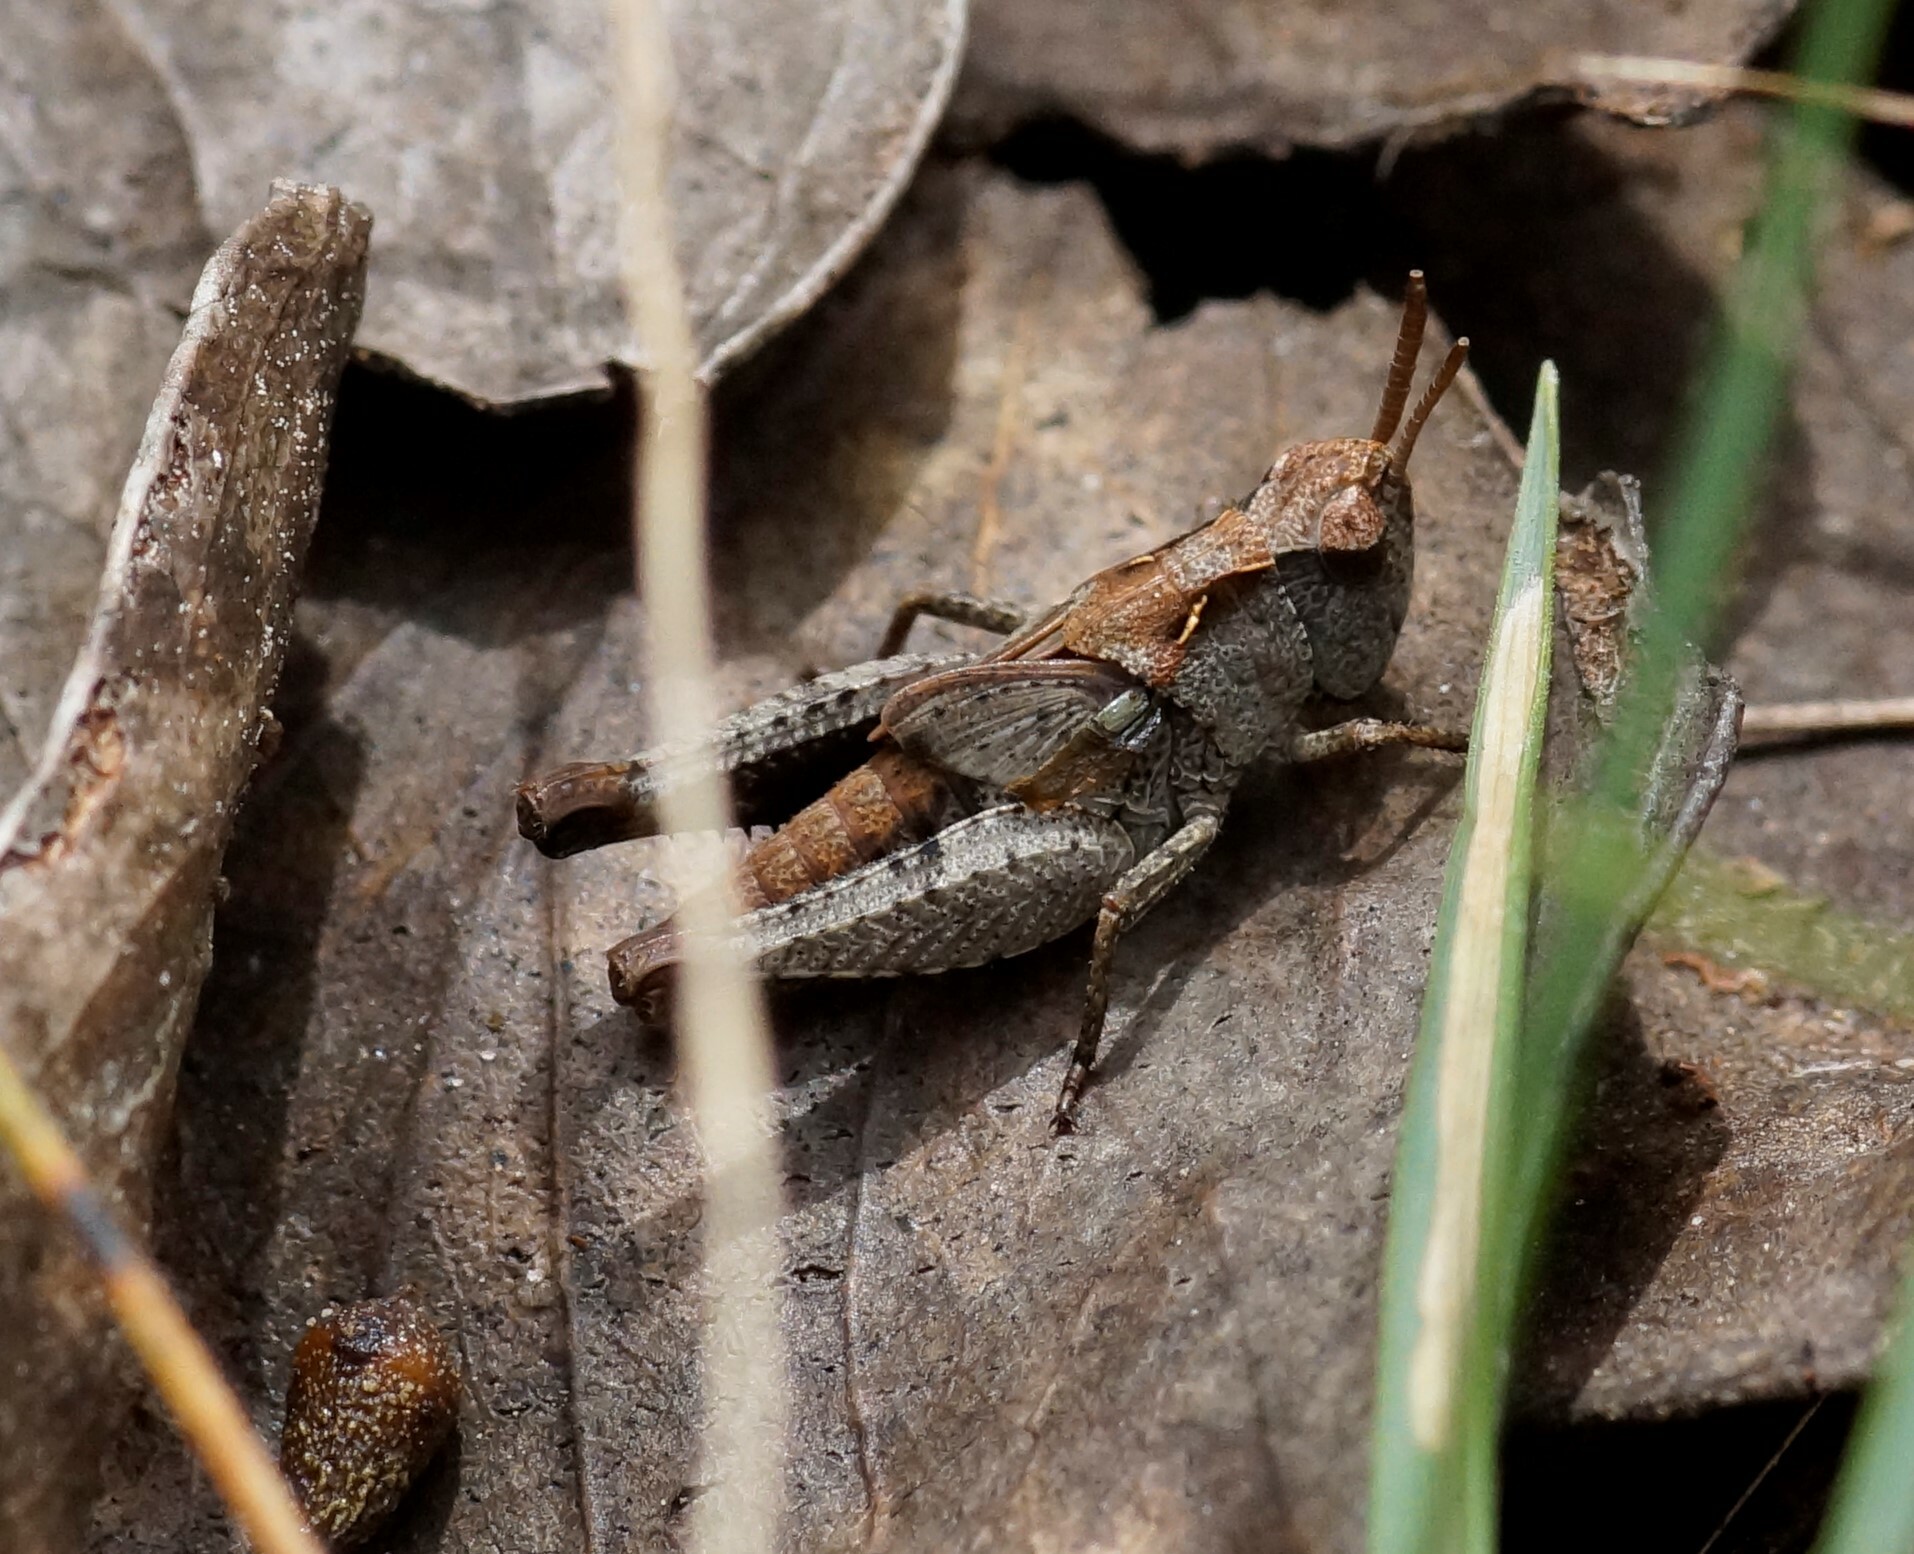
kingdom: Animalia
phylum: Arthropoda
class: Insecta
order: Orthoptera
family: Acrididae
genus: Cryptobothrus
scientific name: Cryptobothrus chrysophorus
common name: Golden bandwing
